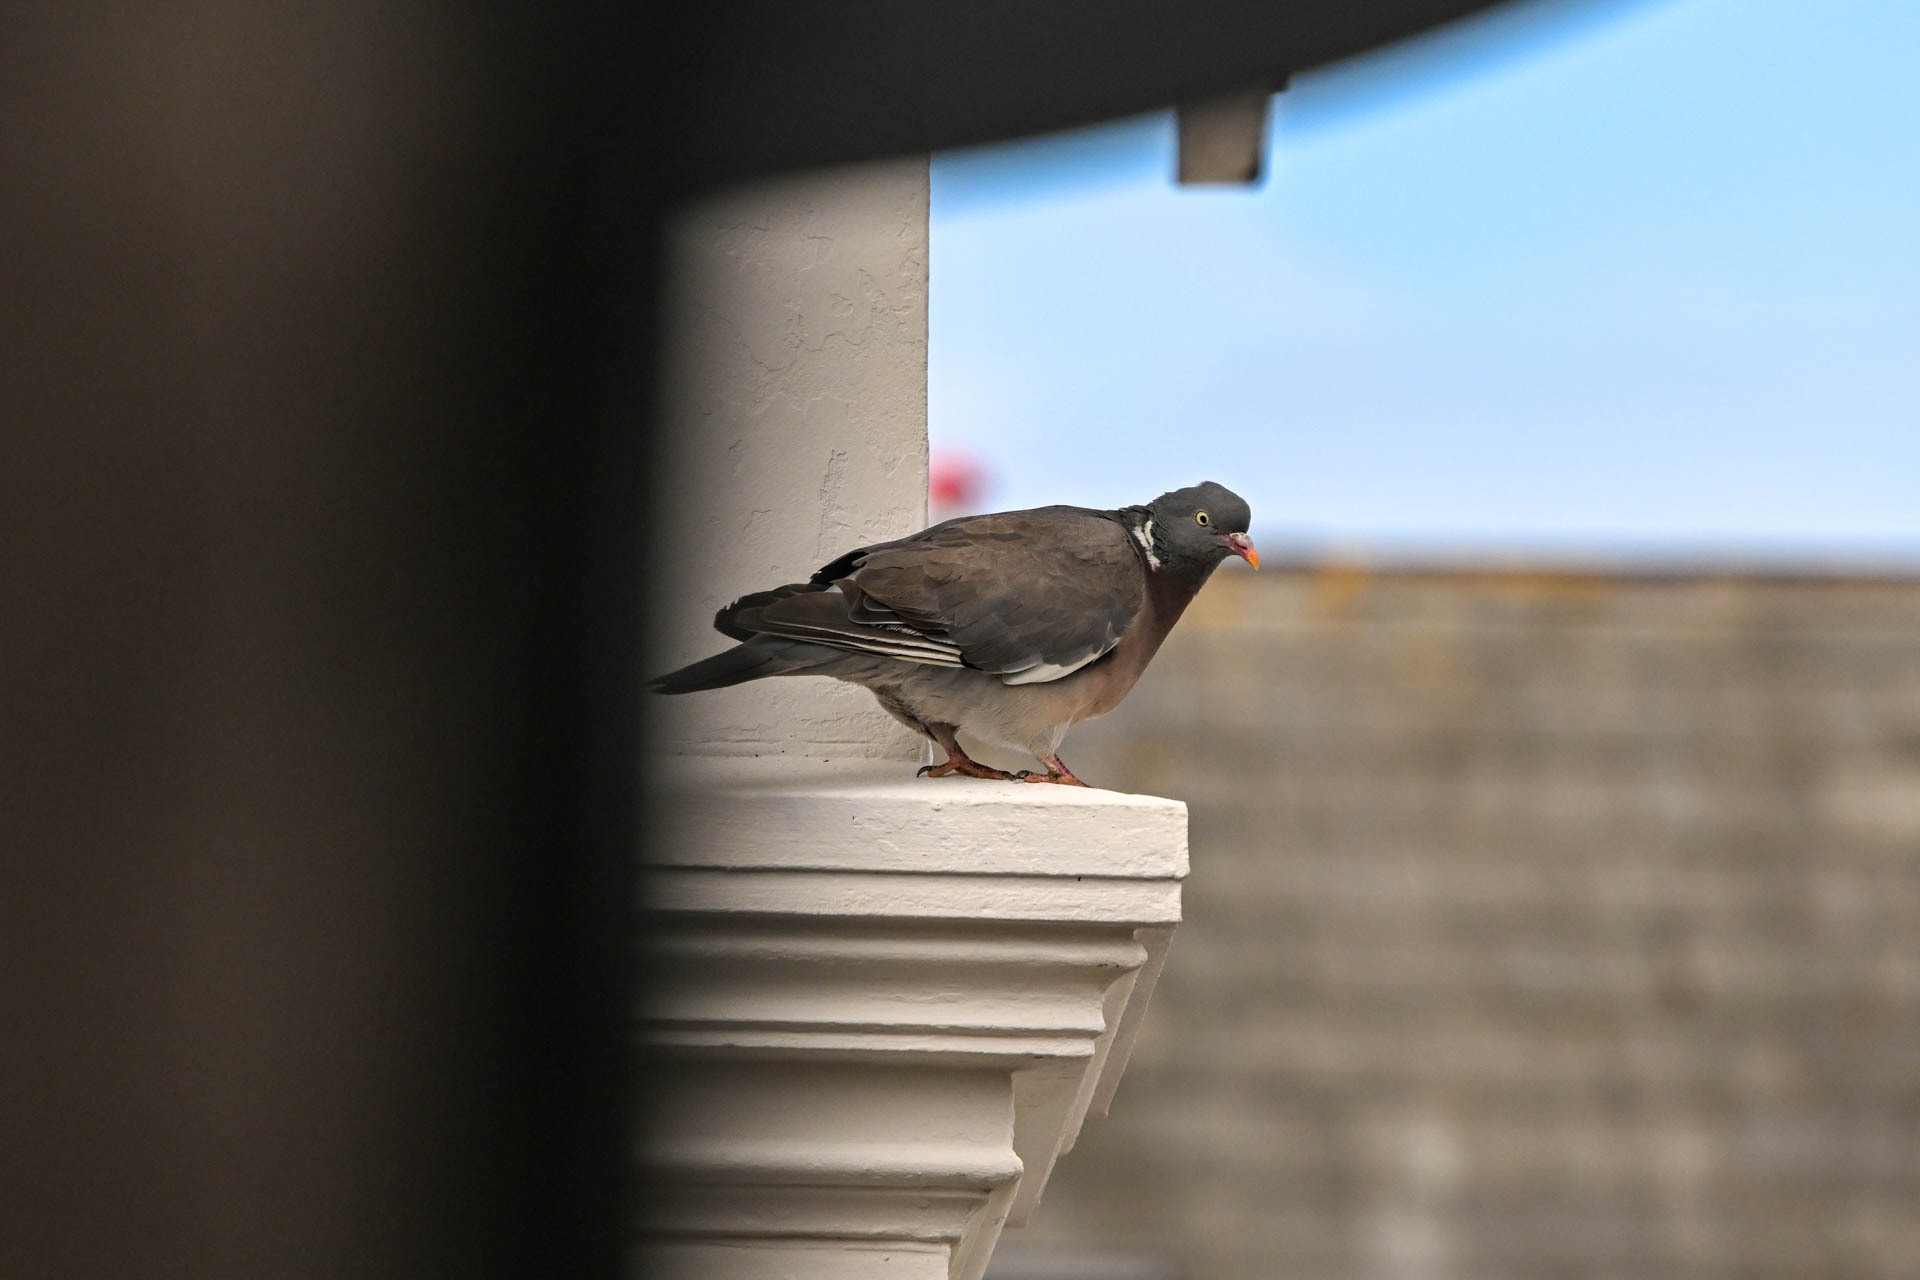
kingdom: Animalia
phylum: Chordata
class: Aves
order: Columbiformes
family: Columbidae
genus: Columba
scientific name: Columba palumbus
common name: Common wood pigeon
